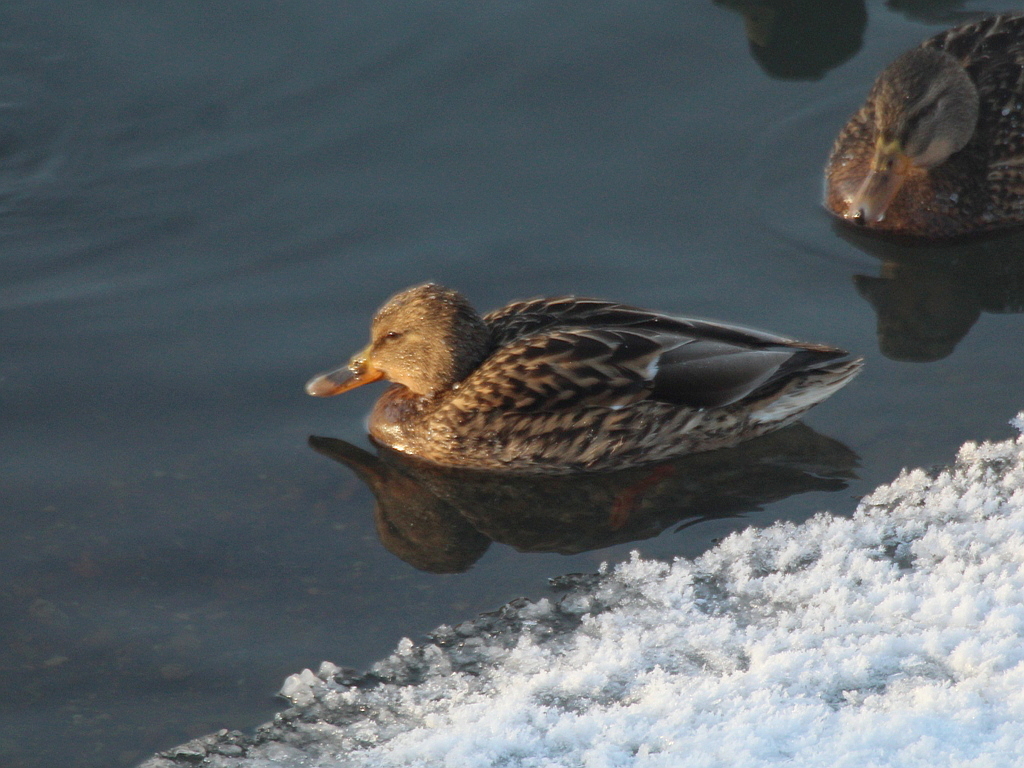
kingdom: Animalia
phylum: Chordata
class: Aves
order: Anseriformes
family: Anatidae
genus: Anas
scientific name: Anas platyrhynchos
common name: Mallard
